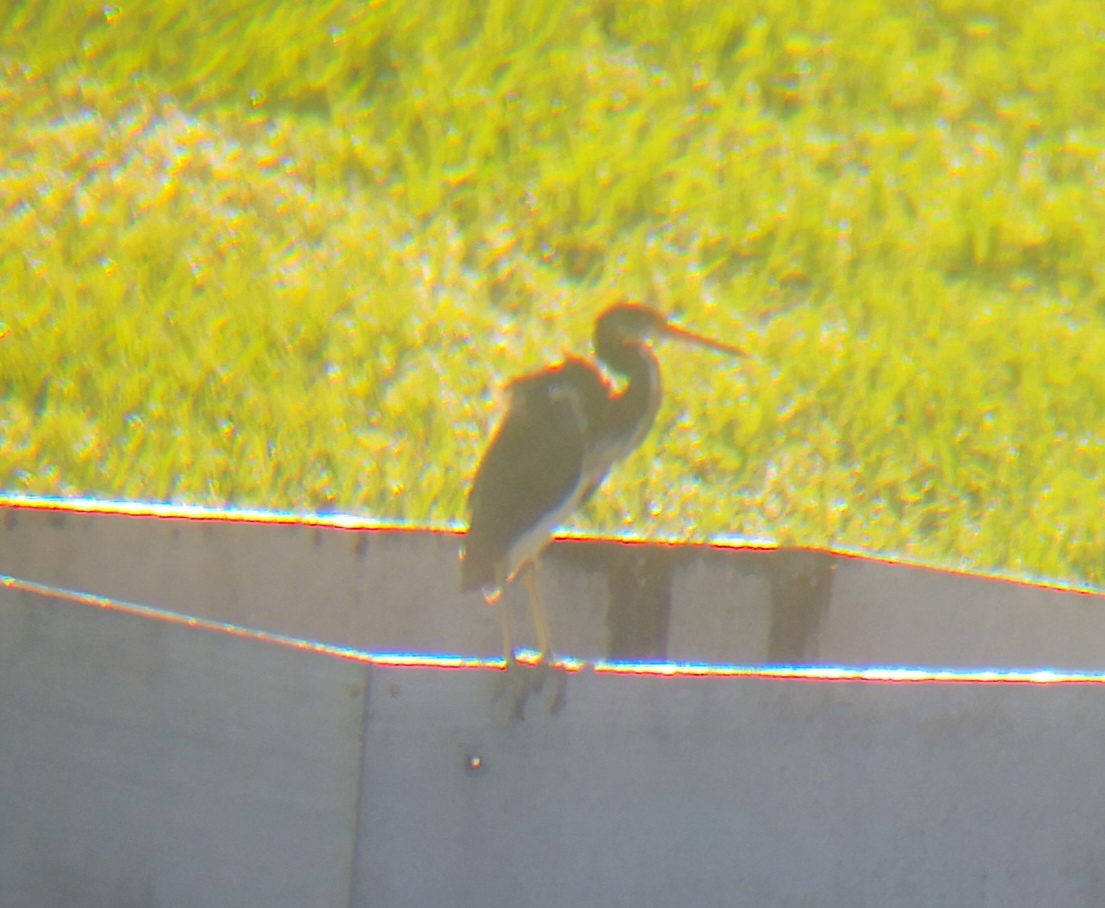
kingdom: Animalia
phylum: Chordata
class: Aves
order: Pelecaniformes
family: Ardeidae
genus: Egretta
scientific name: Egretta tricolor
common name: Tricolored heron
